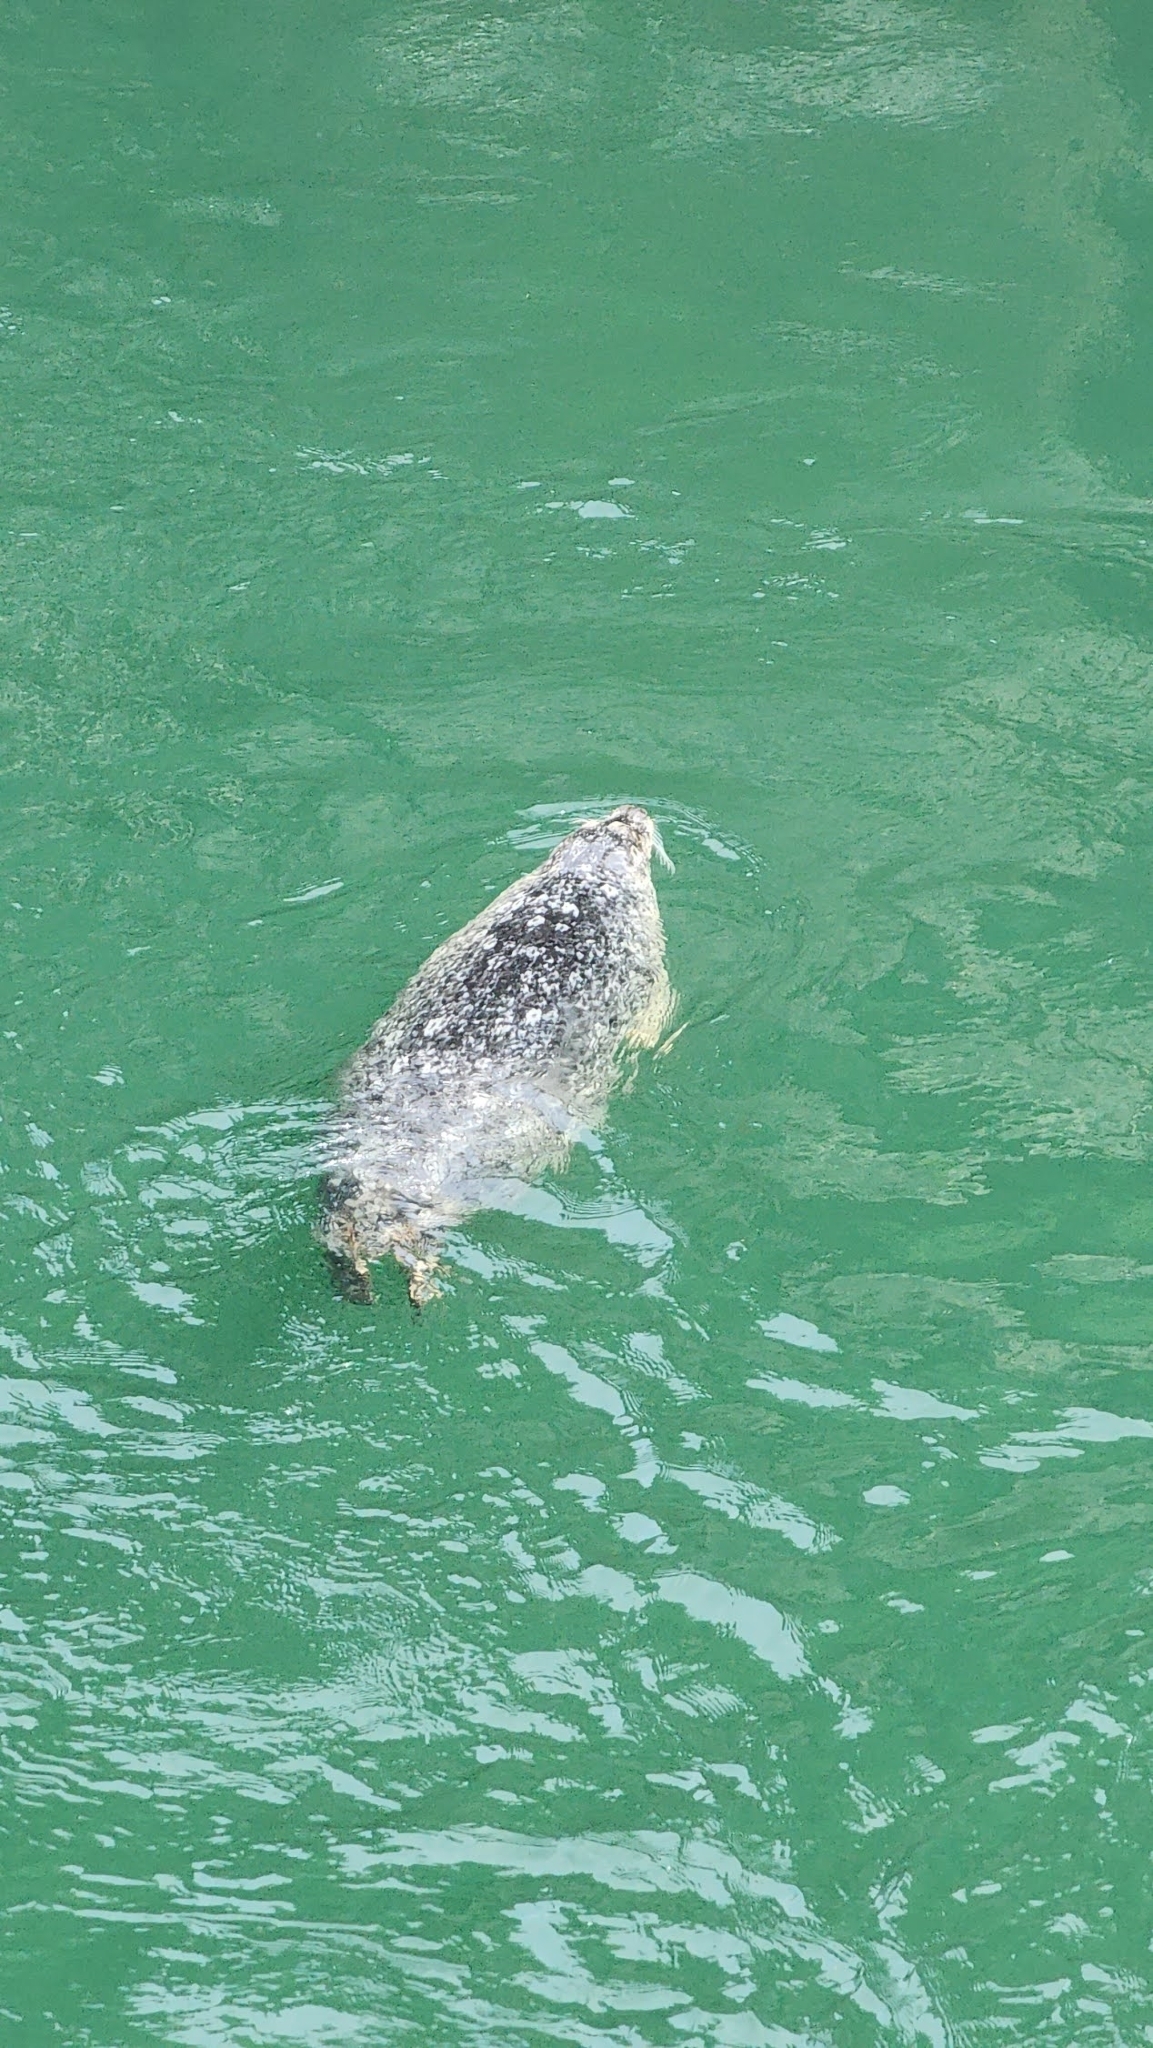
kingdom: Animalia
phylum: Chordata
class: Mammalia
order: Carnivora
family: Phocidae
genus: Phoca
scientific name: Phoca vitulina
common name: Harbor seal
